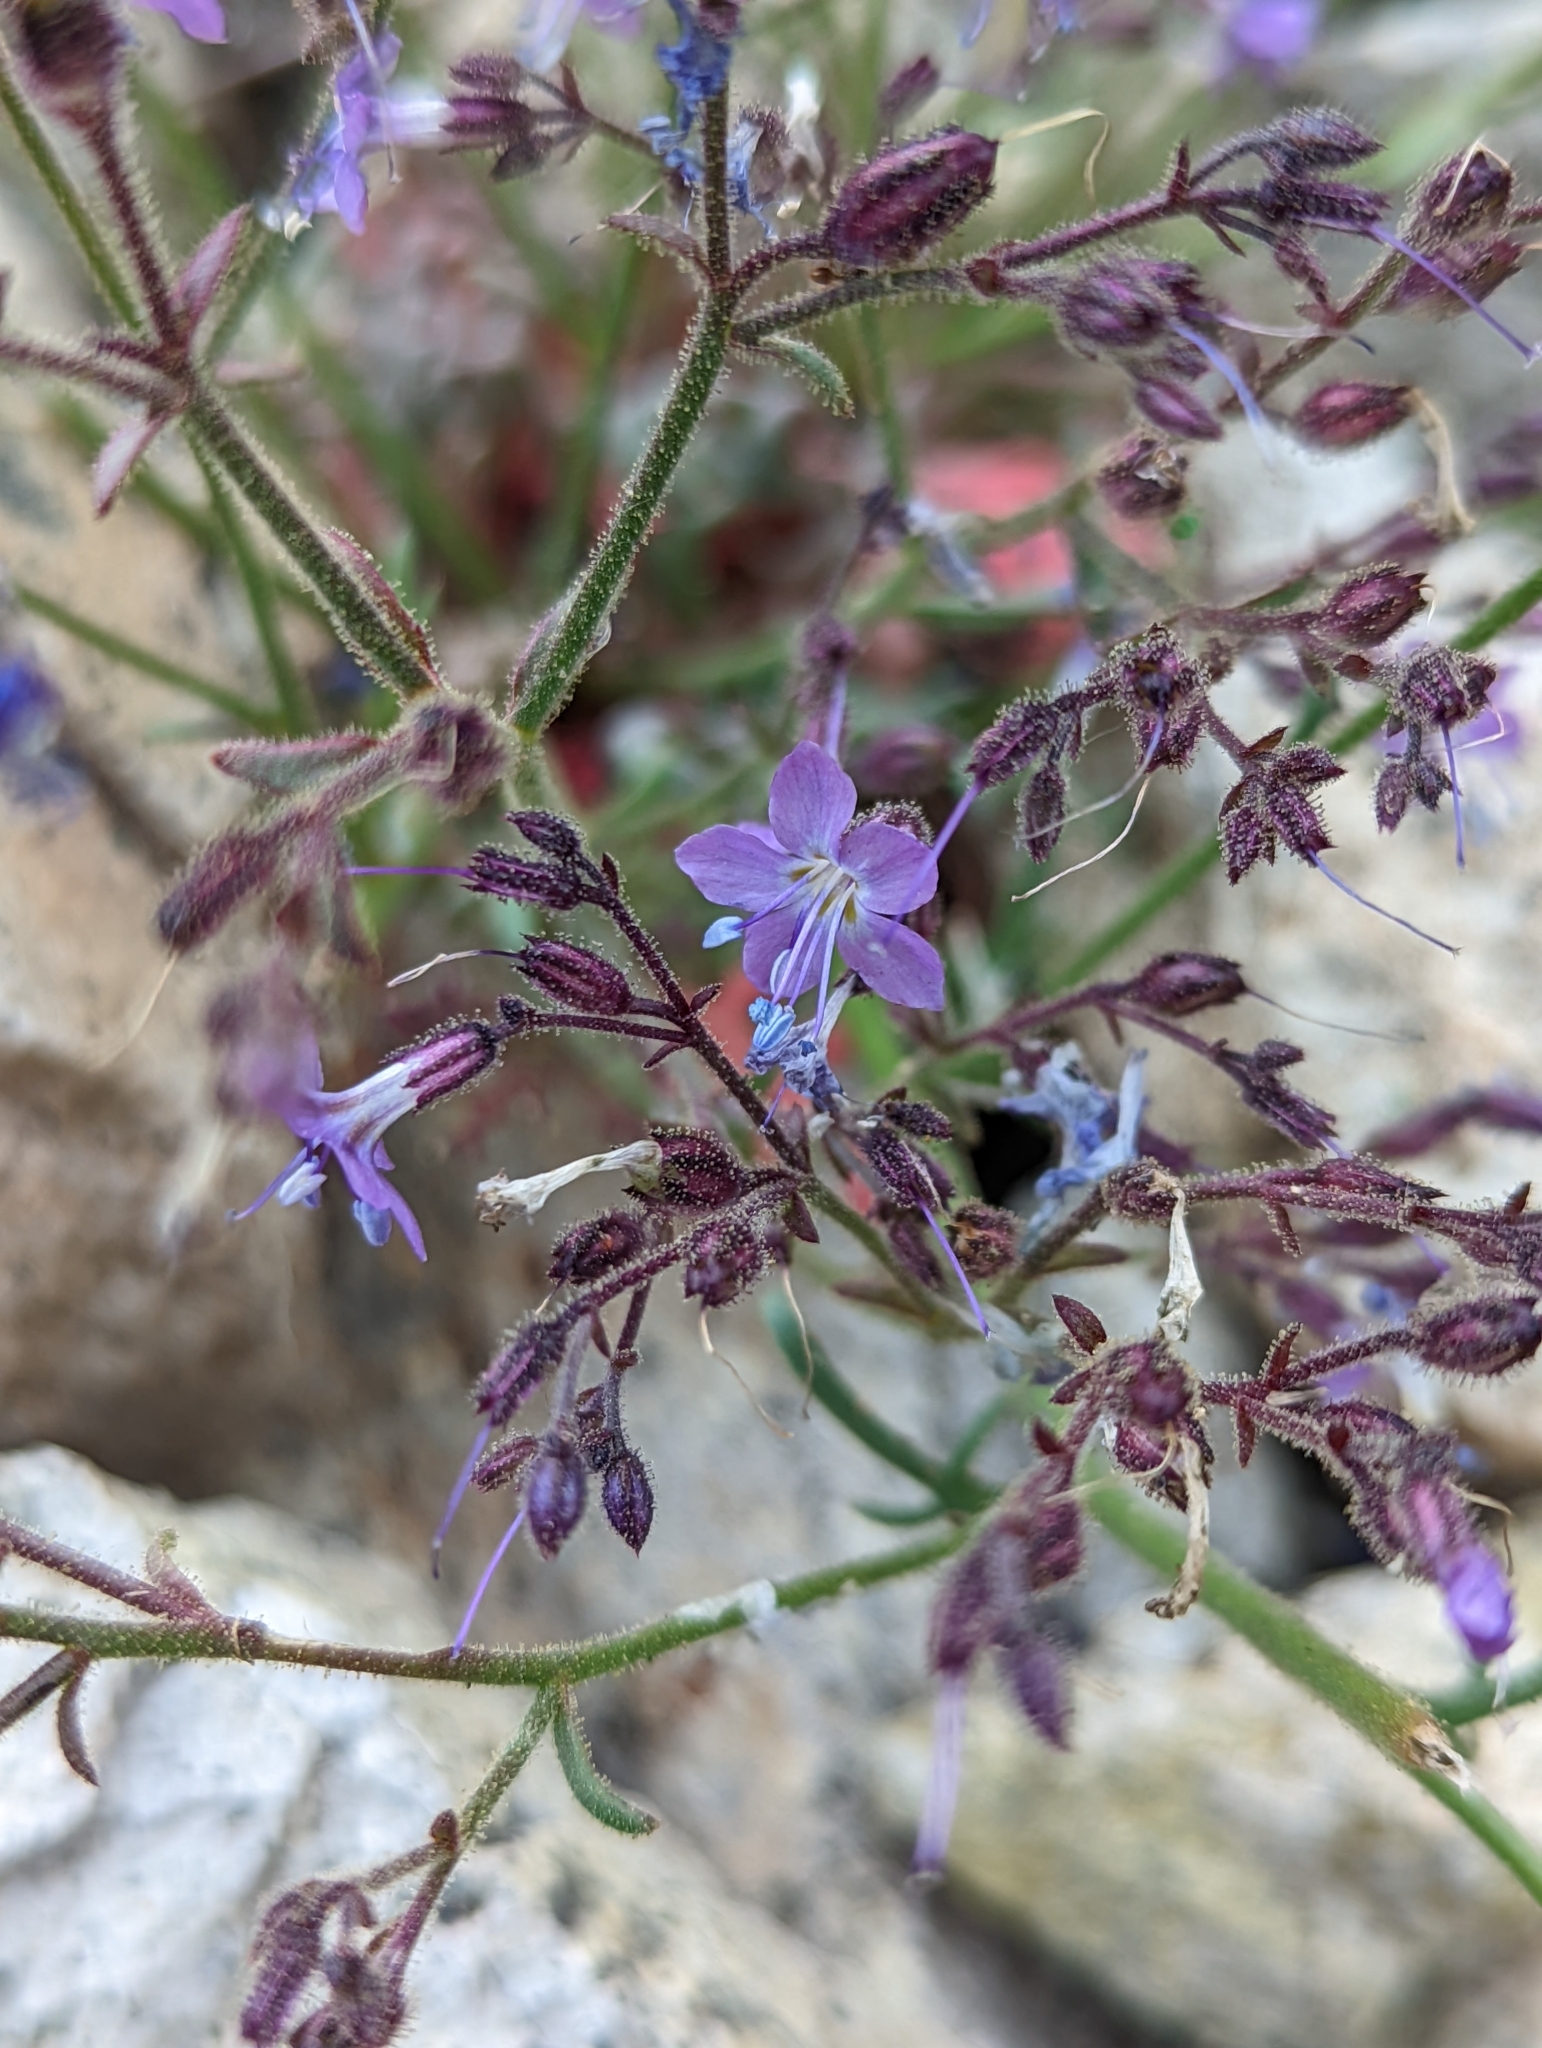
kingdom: Plantae
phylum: Tracheophyta
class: Magnoliopsida
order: Ericales
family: Polemoniaceae
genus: Aliciella
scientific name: Aliciella pinnatifida
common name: Sticky gilia
